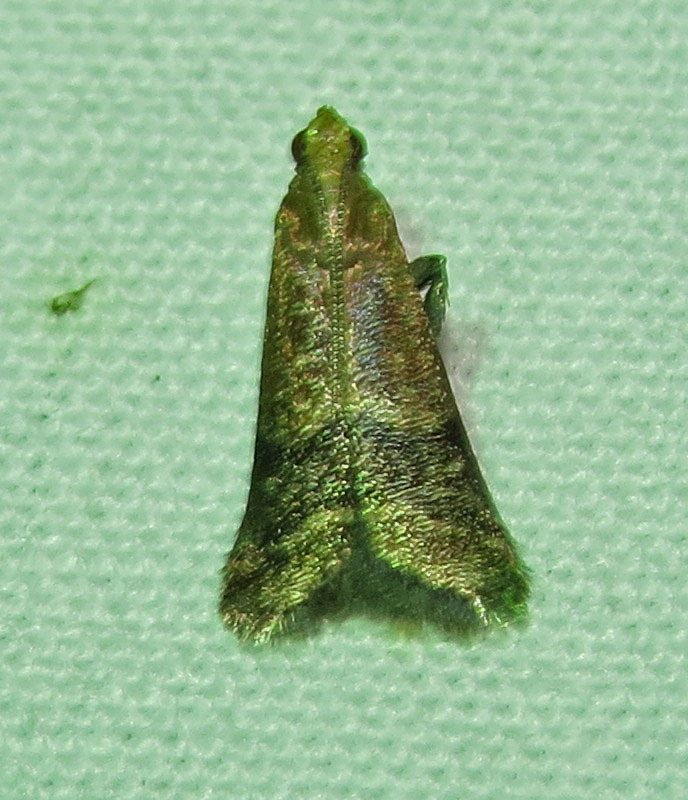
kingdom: Animalia
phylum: Arthropoda
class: Insecta
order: Lepidoptera
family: Pyralidae
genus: Eulogia
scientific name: Eulogia ochrifrontella
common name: Broad-banded eulogia moth
